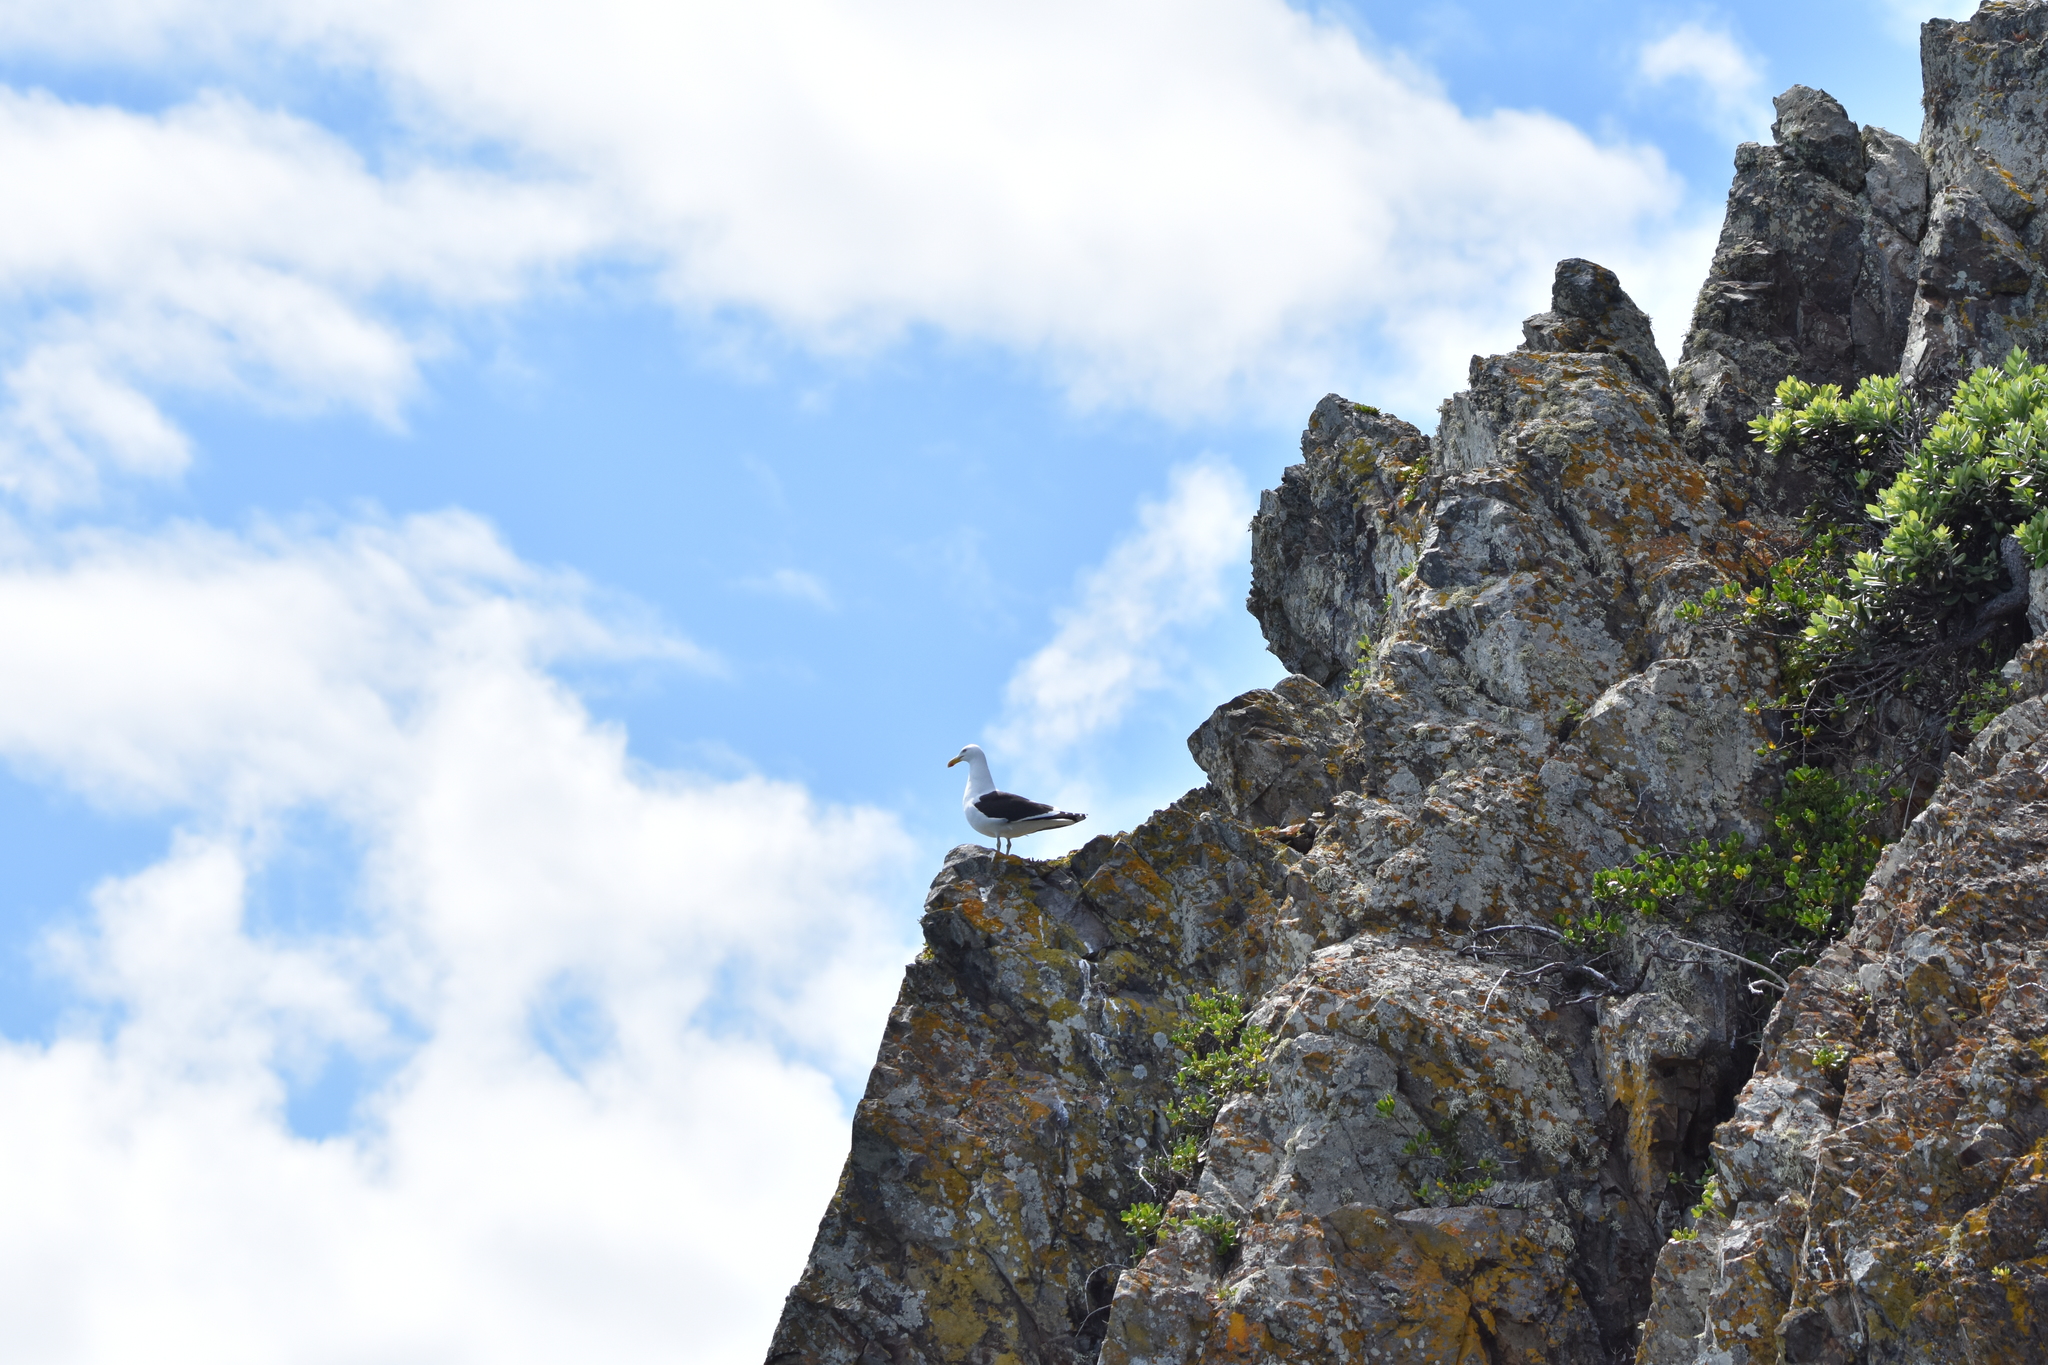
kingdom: Animalia
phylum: Chordata
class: Aves
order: Charadriiformes
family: Laridae
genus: Larus
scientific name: Larus dominicanus
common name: Kelp gull
